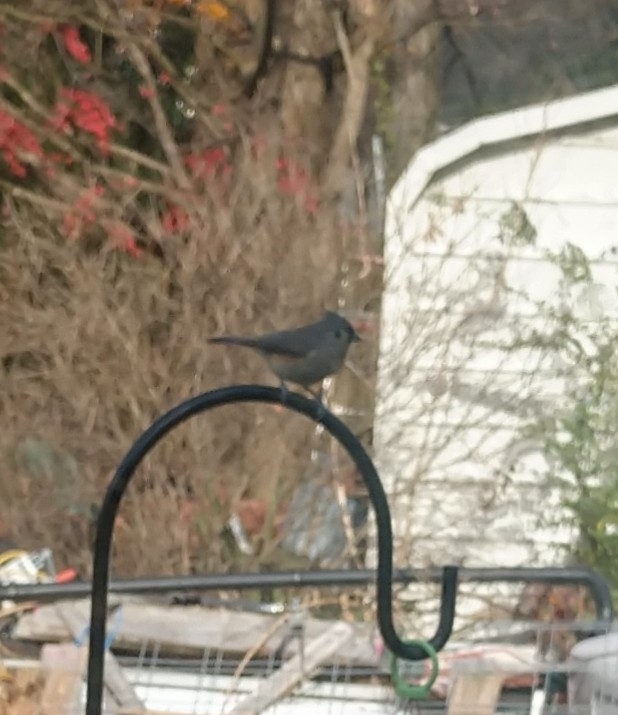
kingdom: Animalia
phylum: Chordata
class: Aves
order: Passeriformes
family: Paridae
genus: Baeolophus
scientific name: Baeolophus bicolor
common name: Tufted titmouse
